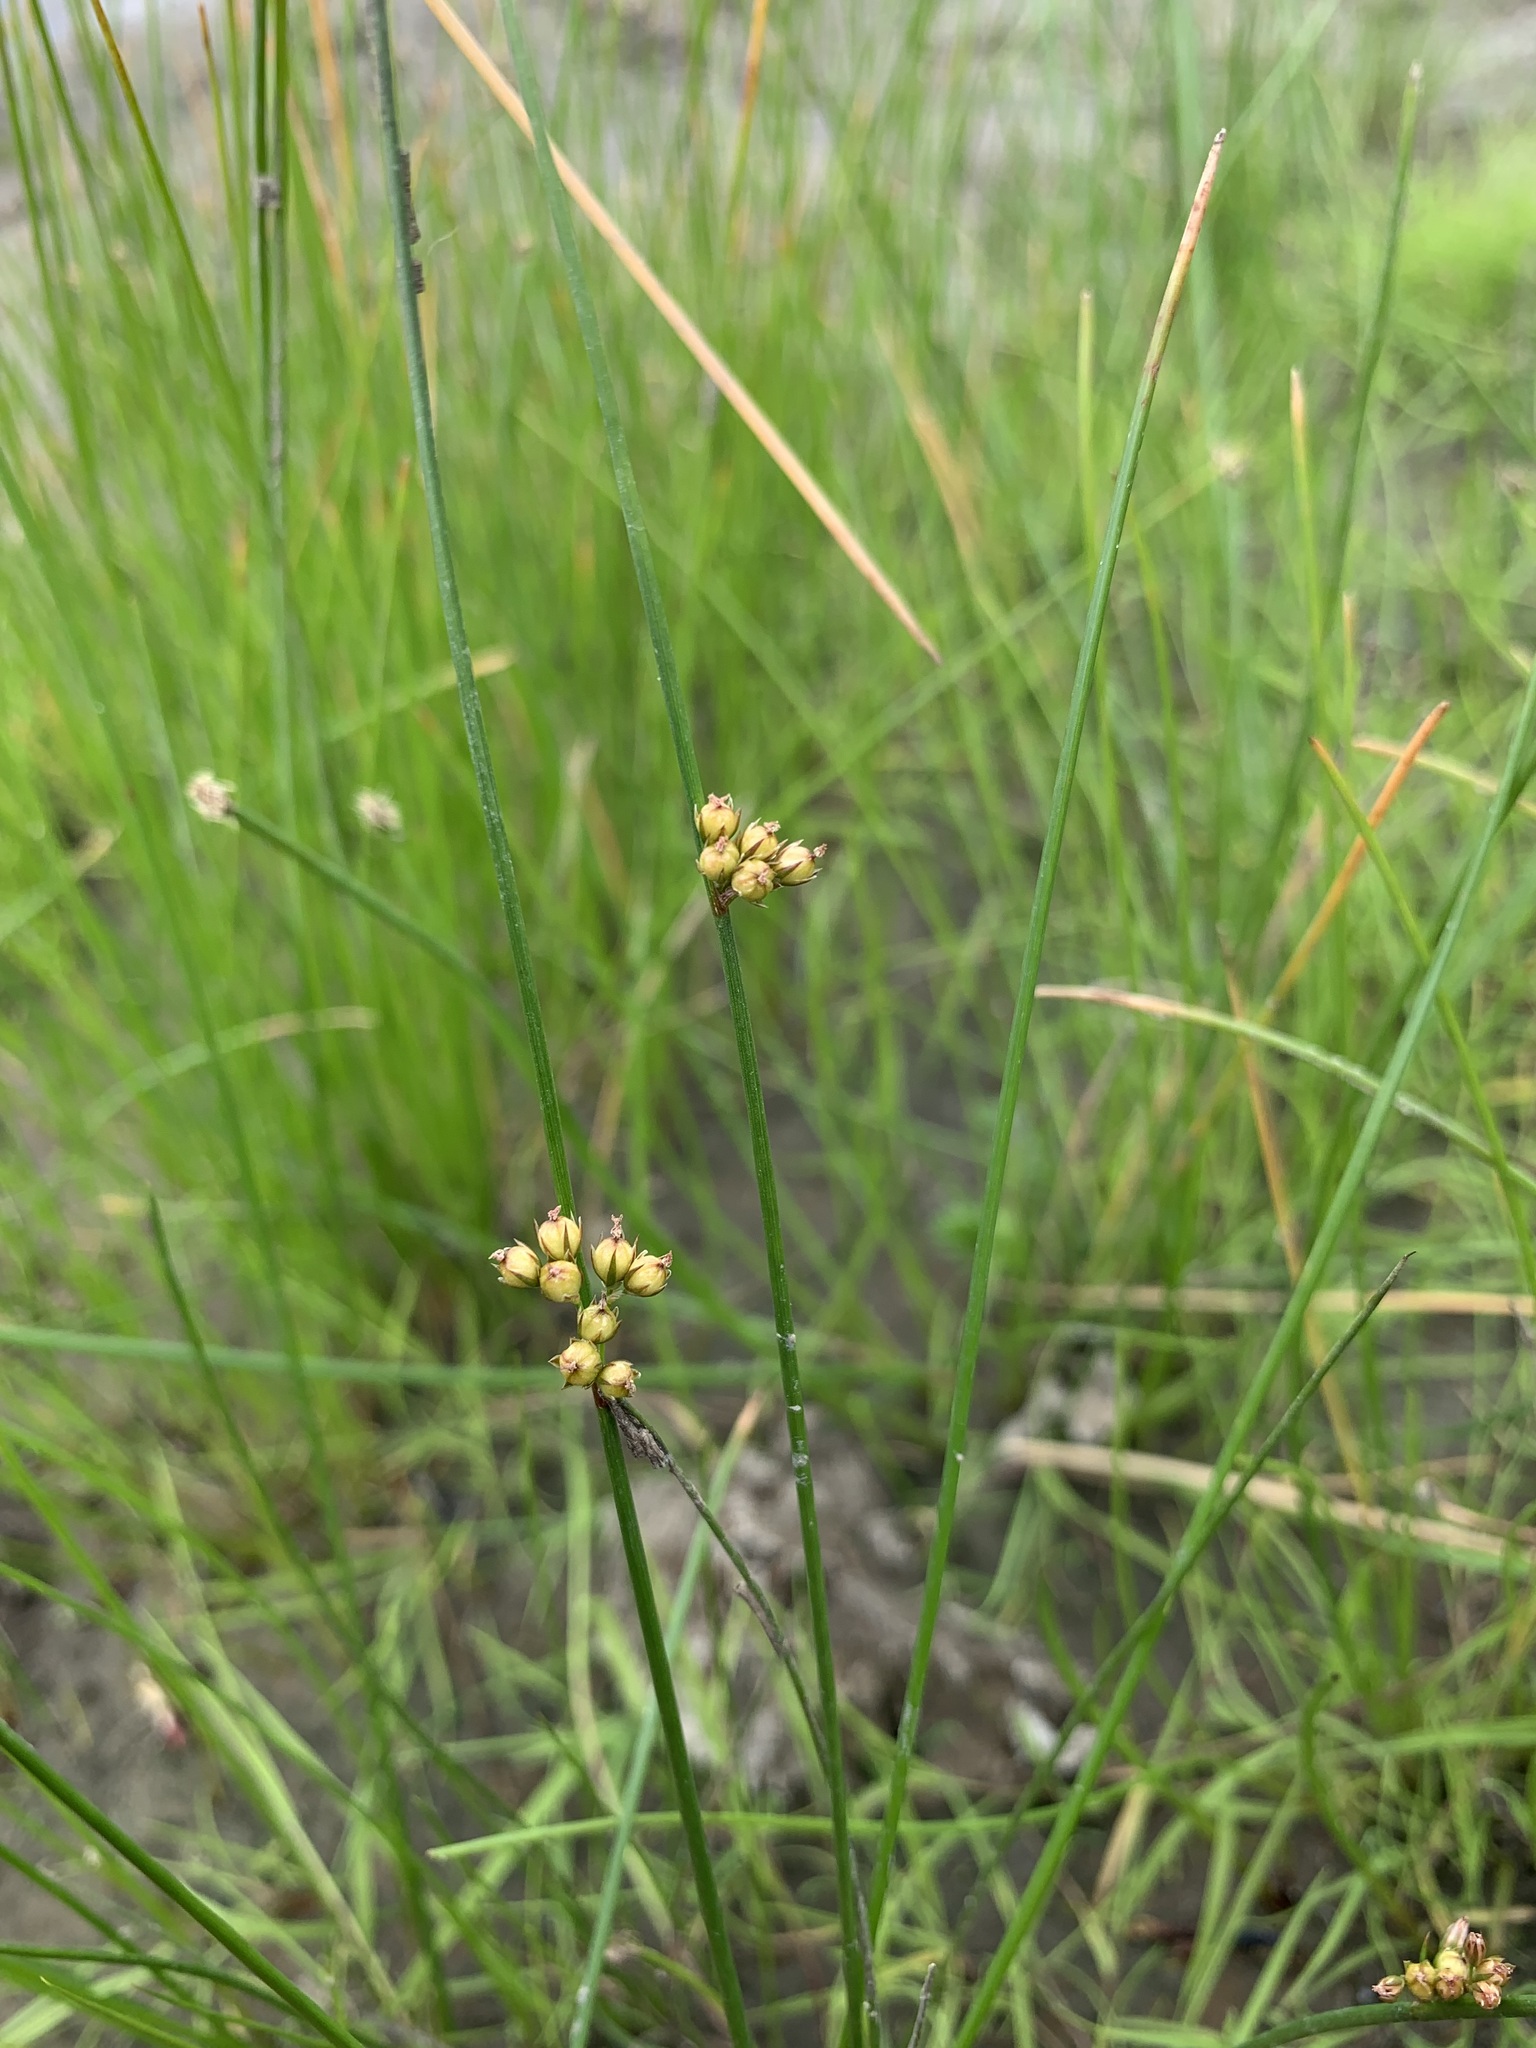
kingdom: Plantae
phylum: Tracheophyta
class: Liliopsida
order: Poales
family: Juncaceae
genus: Juncus
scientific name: Juncus filiformis
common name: Thread rush
